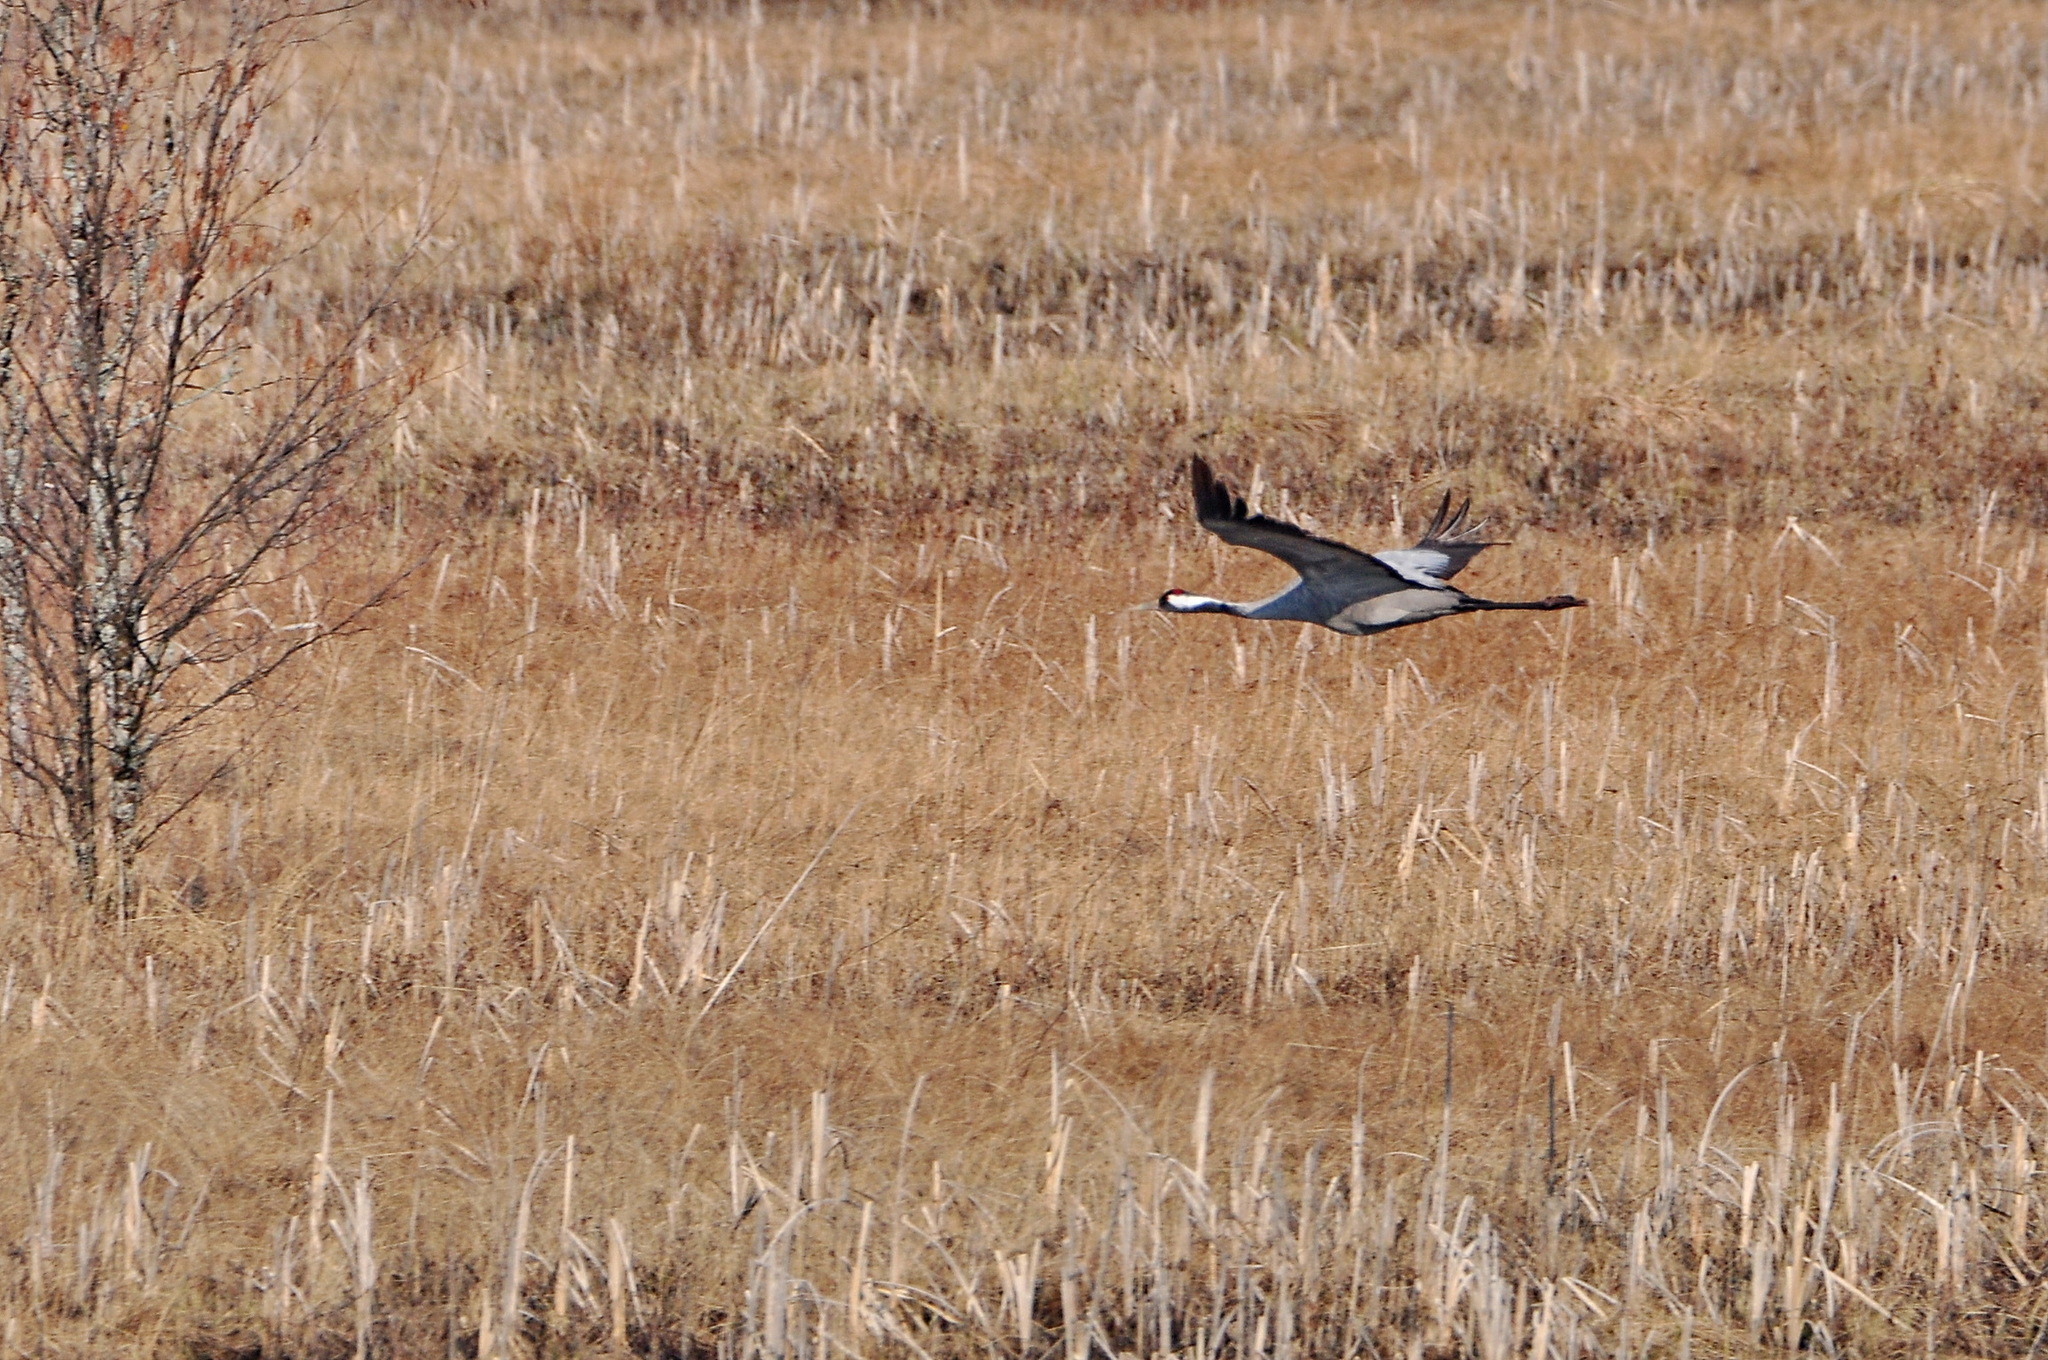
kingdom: Animalia
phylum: Chordata
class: Aves
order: Gruiformes
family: Gruidae
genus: Grus
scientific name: Grus grus
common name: Common crane
